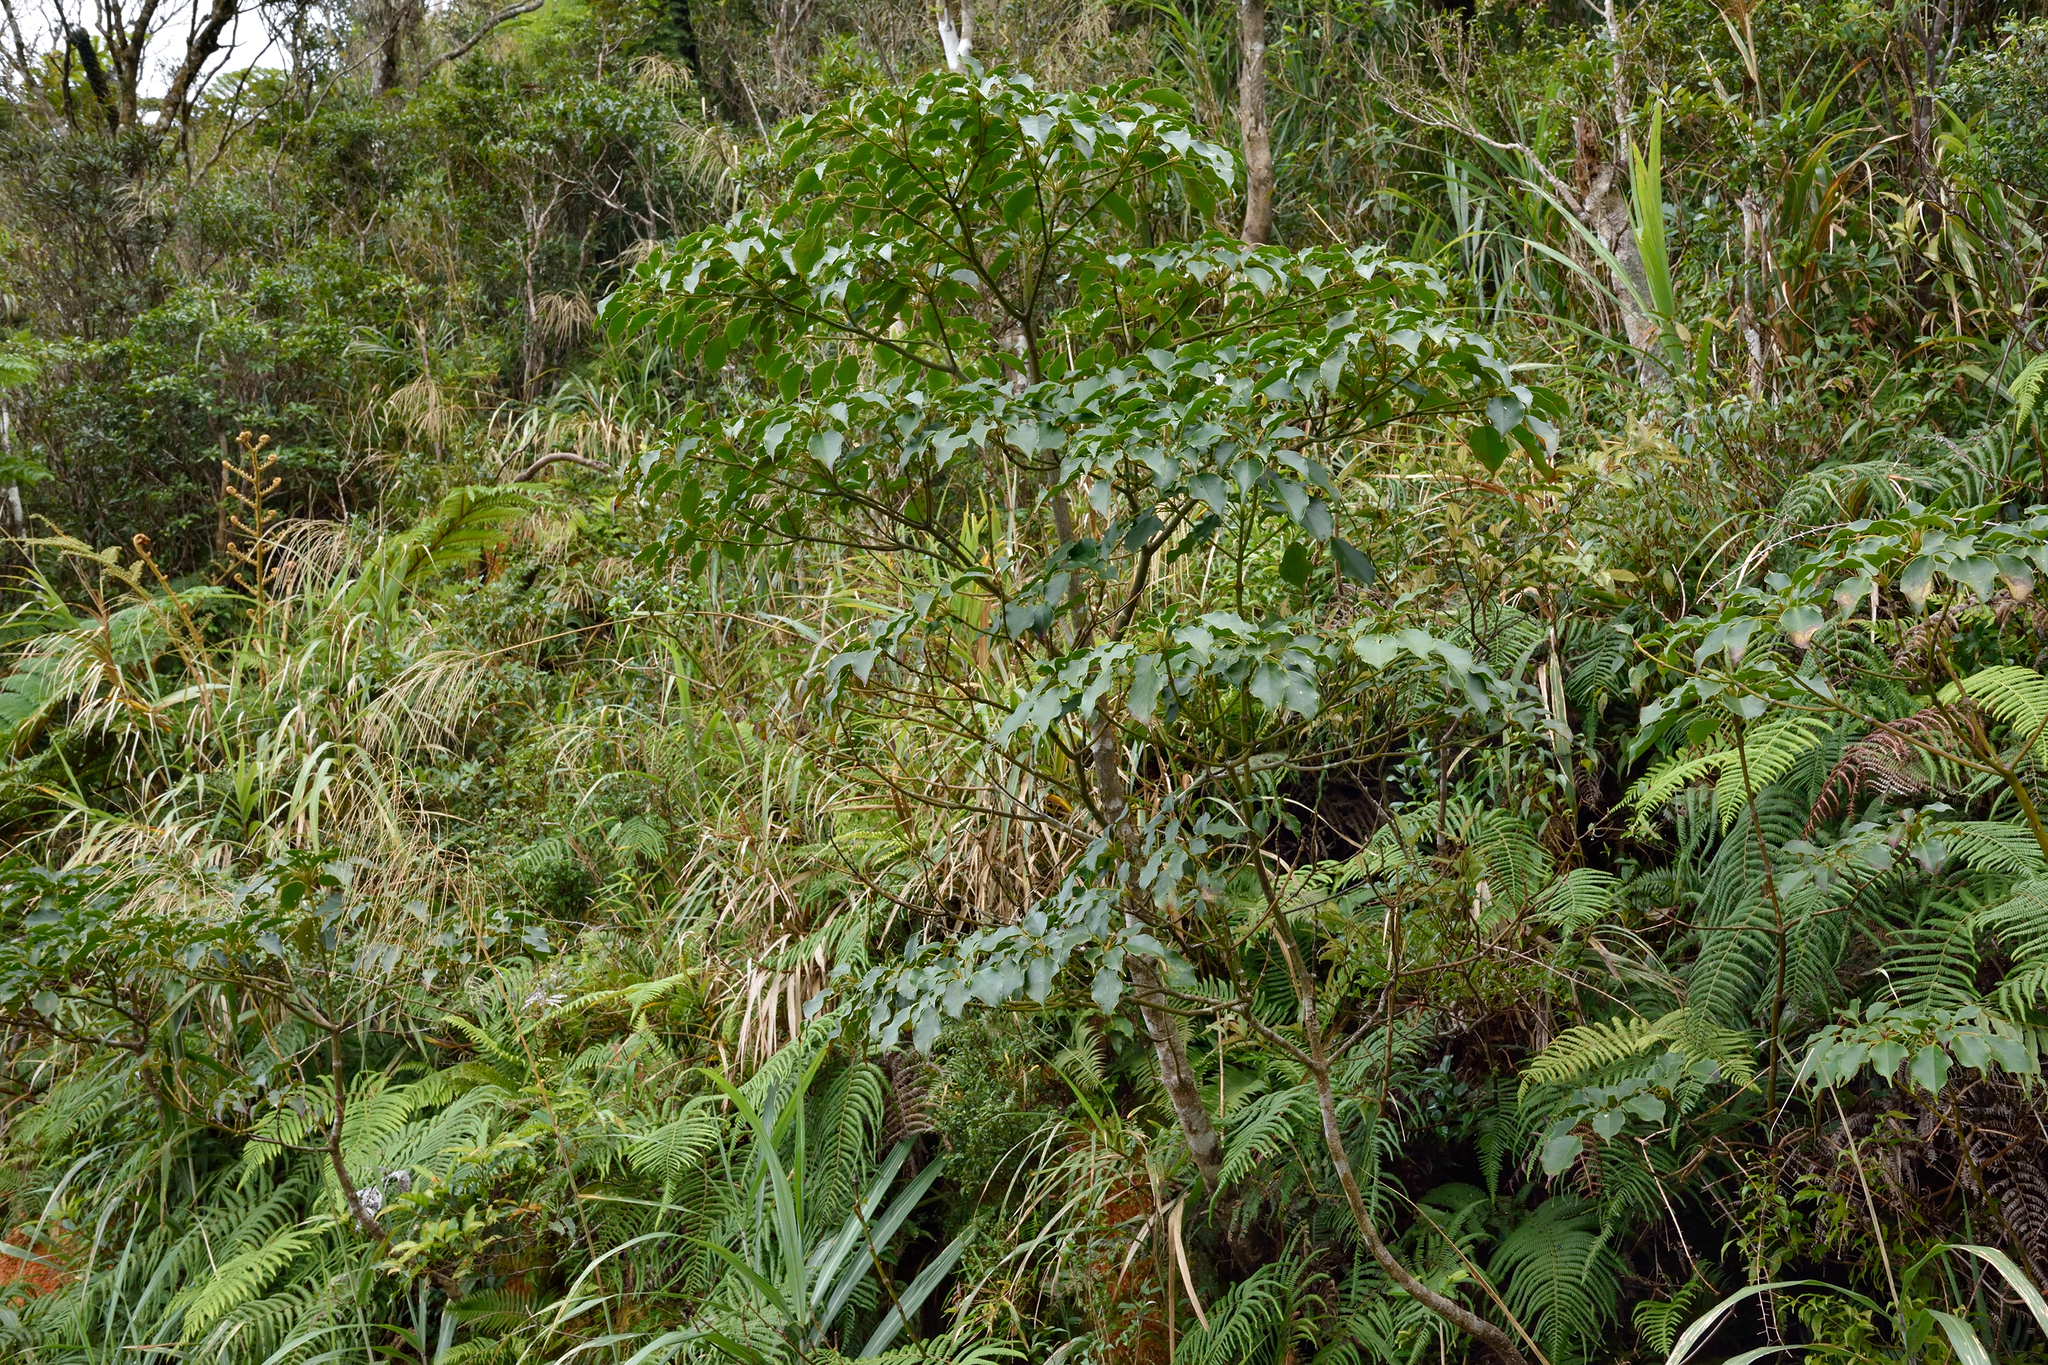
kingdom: Plantae
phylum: Tracheophyta
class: Magnoliopsida
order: Trochodendrales
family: Trochodendraceae
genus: Trochodendron
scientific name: Trochodendron aralioides
